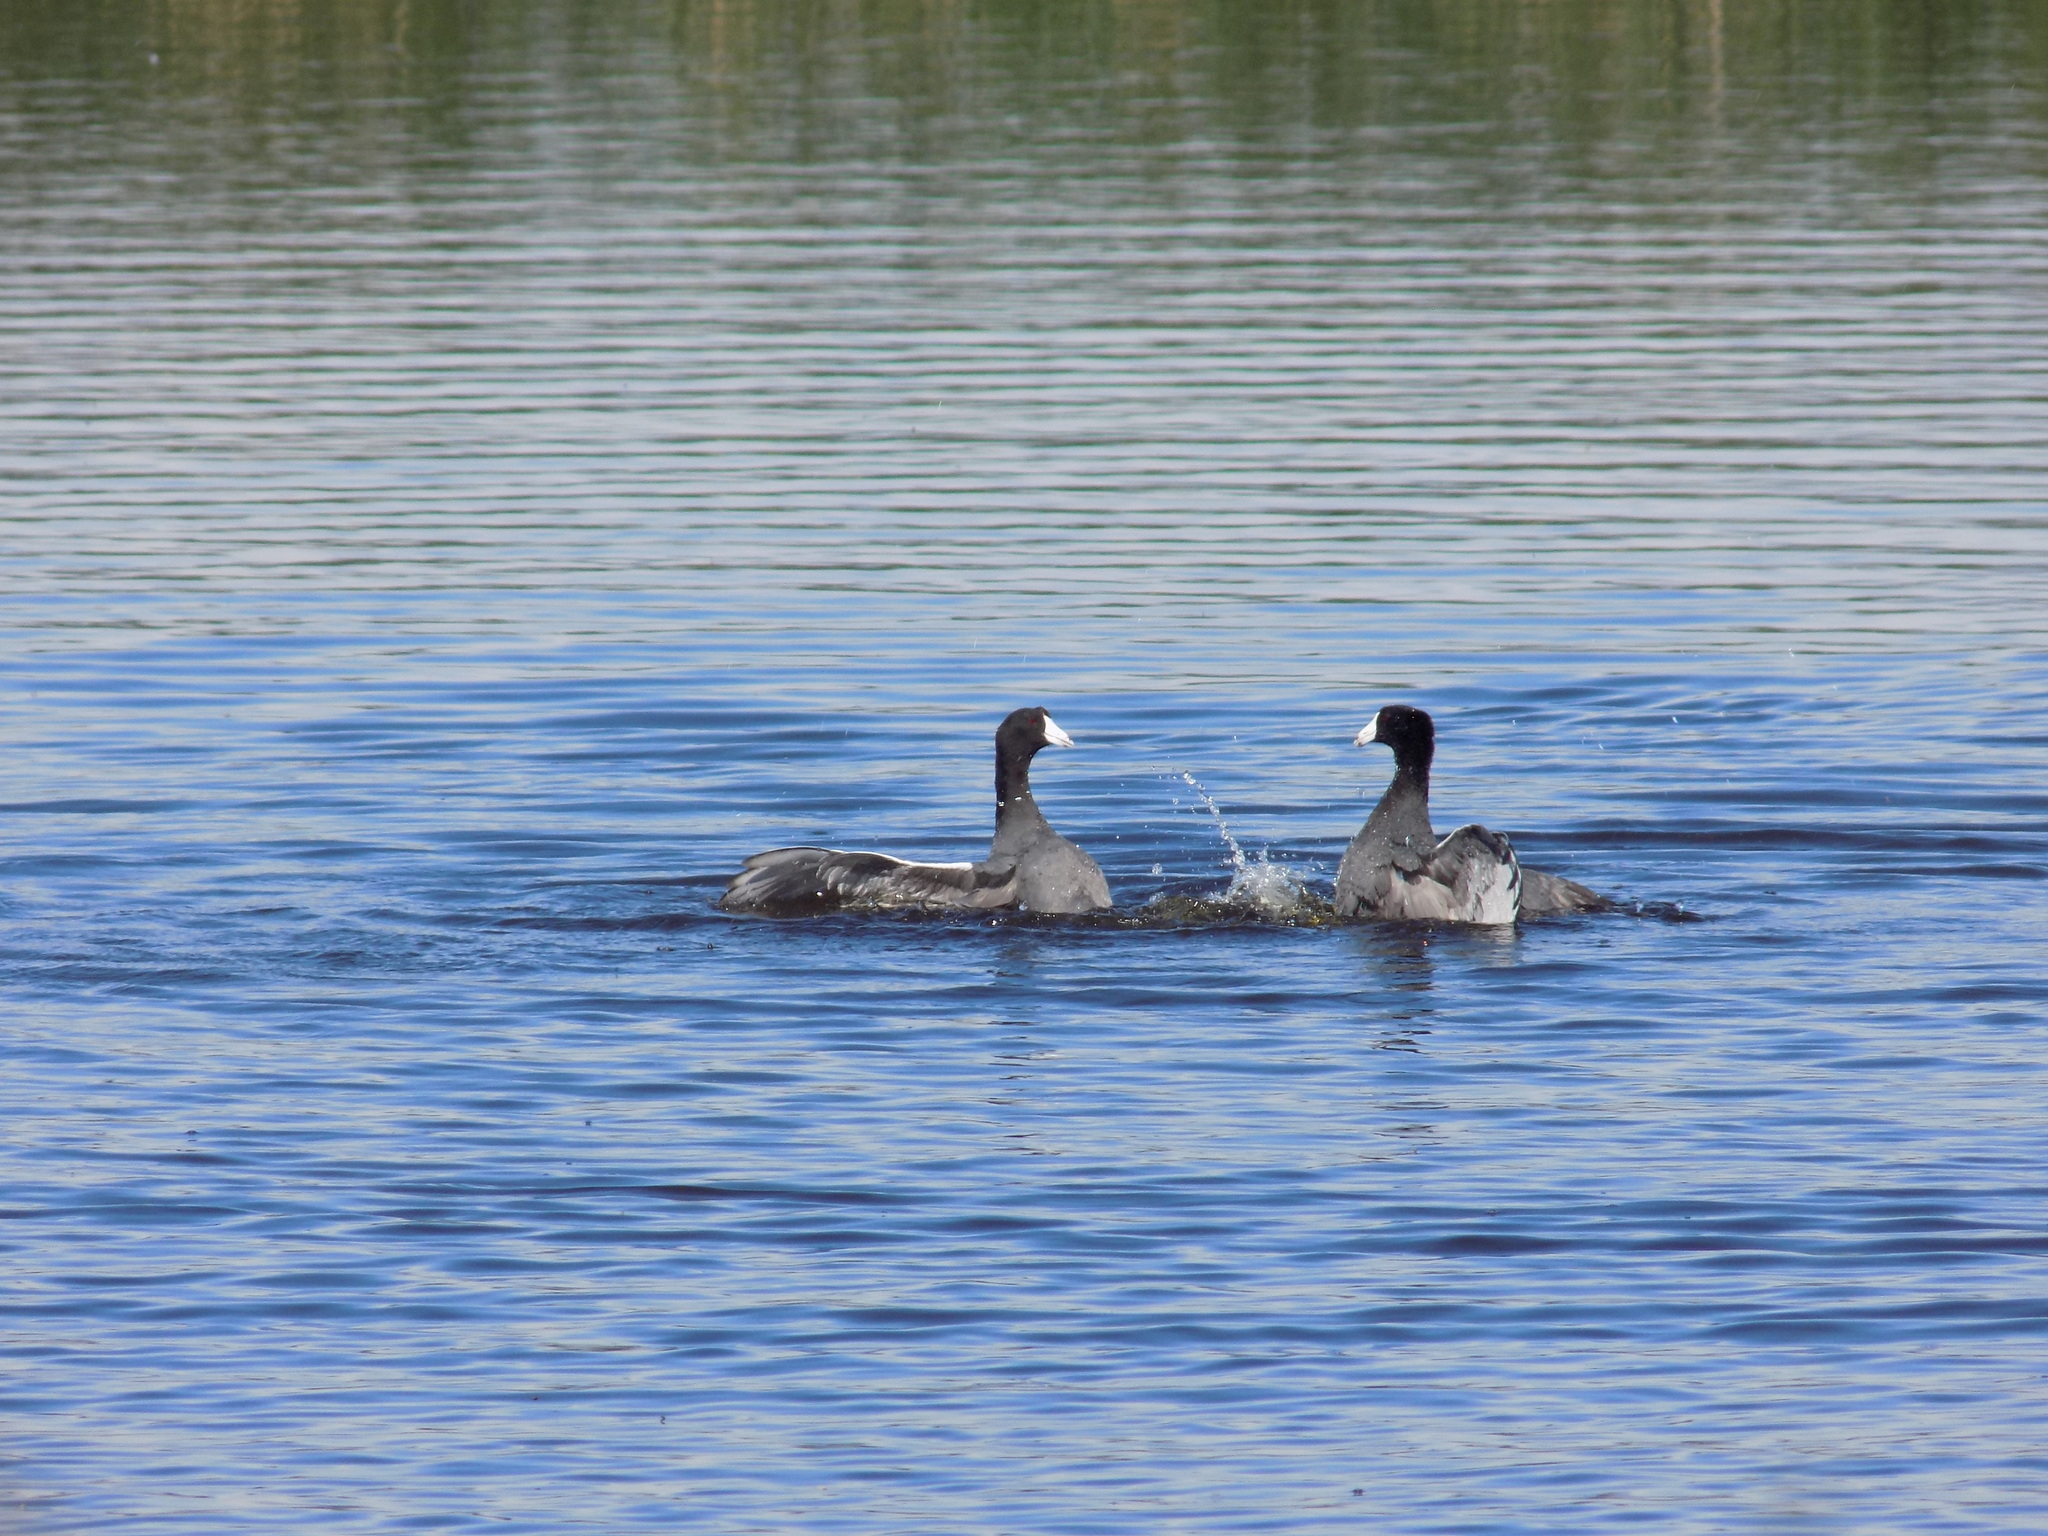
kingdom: Animalia
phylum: Chordata
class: Aves
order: Gruiformes
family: Rallidae
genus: Fulica
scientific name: Fulica americana
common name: American coot
